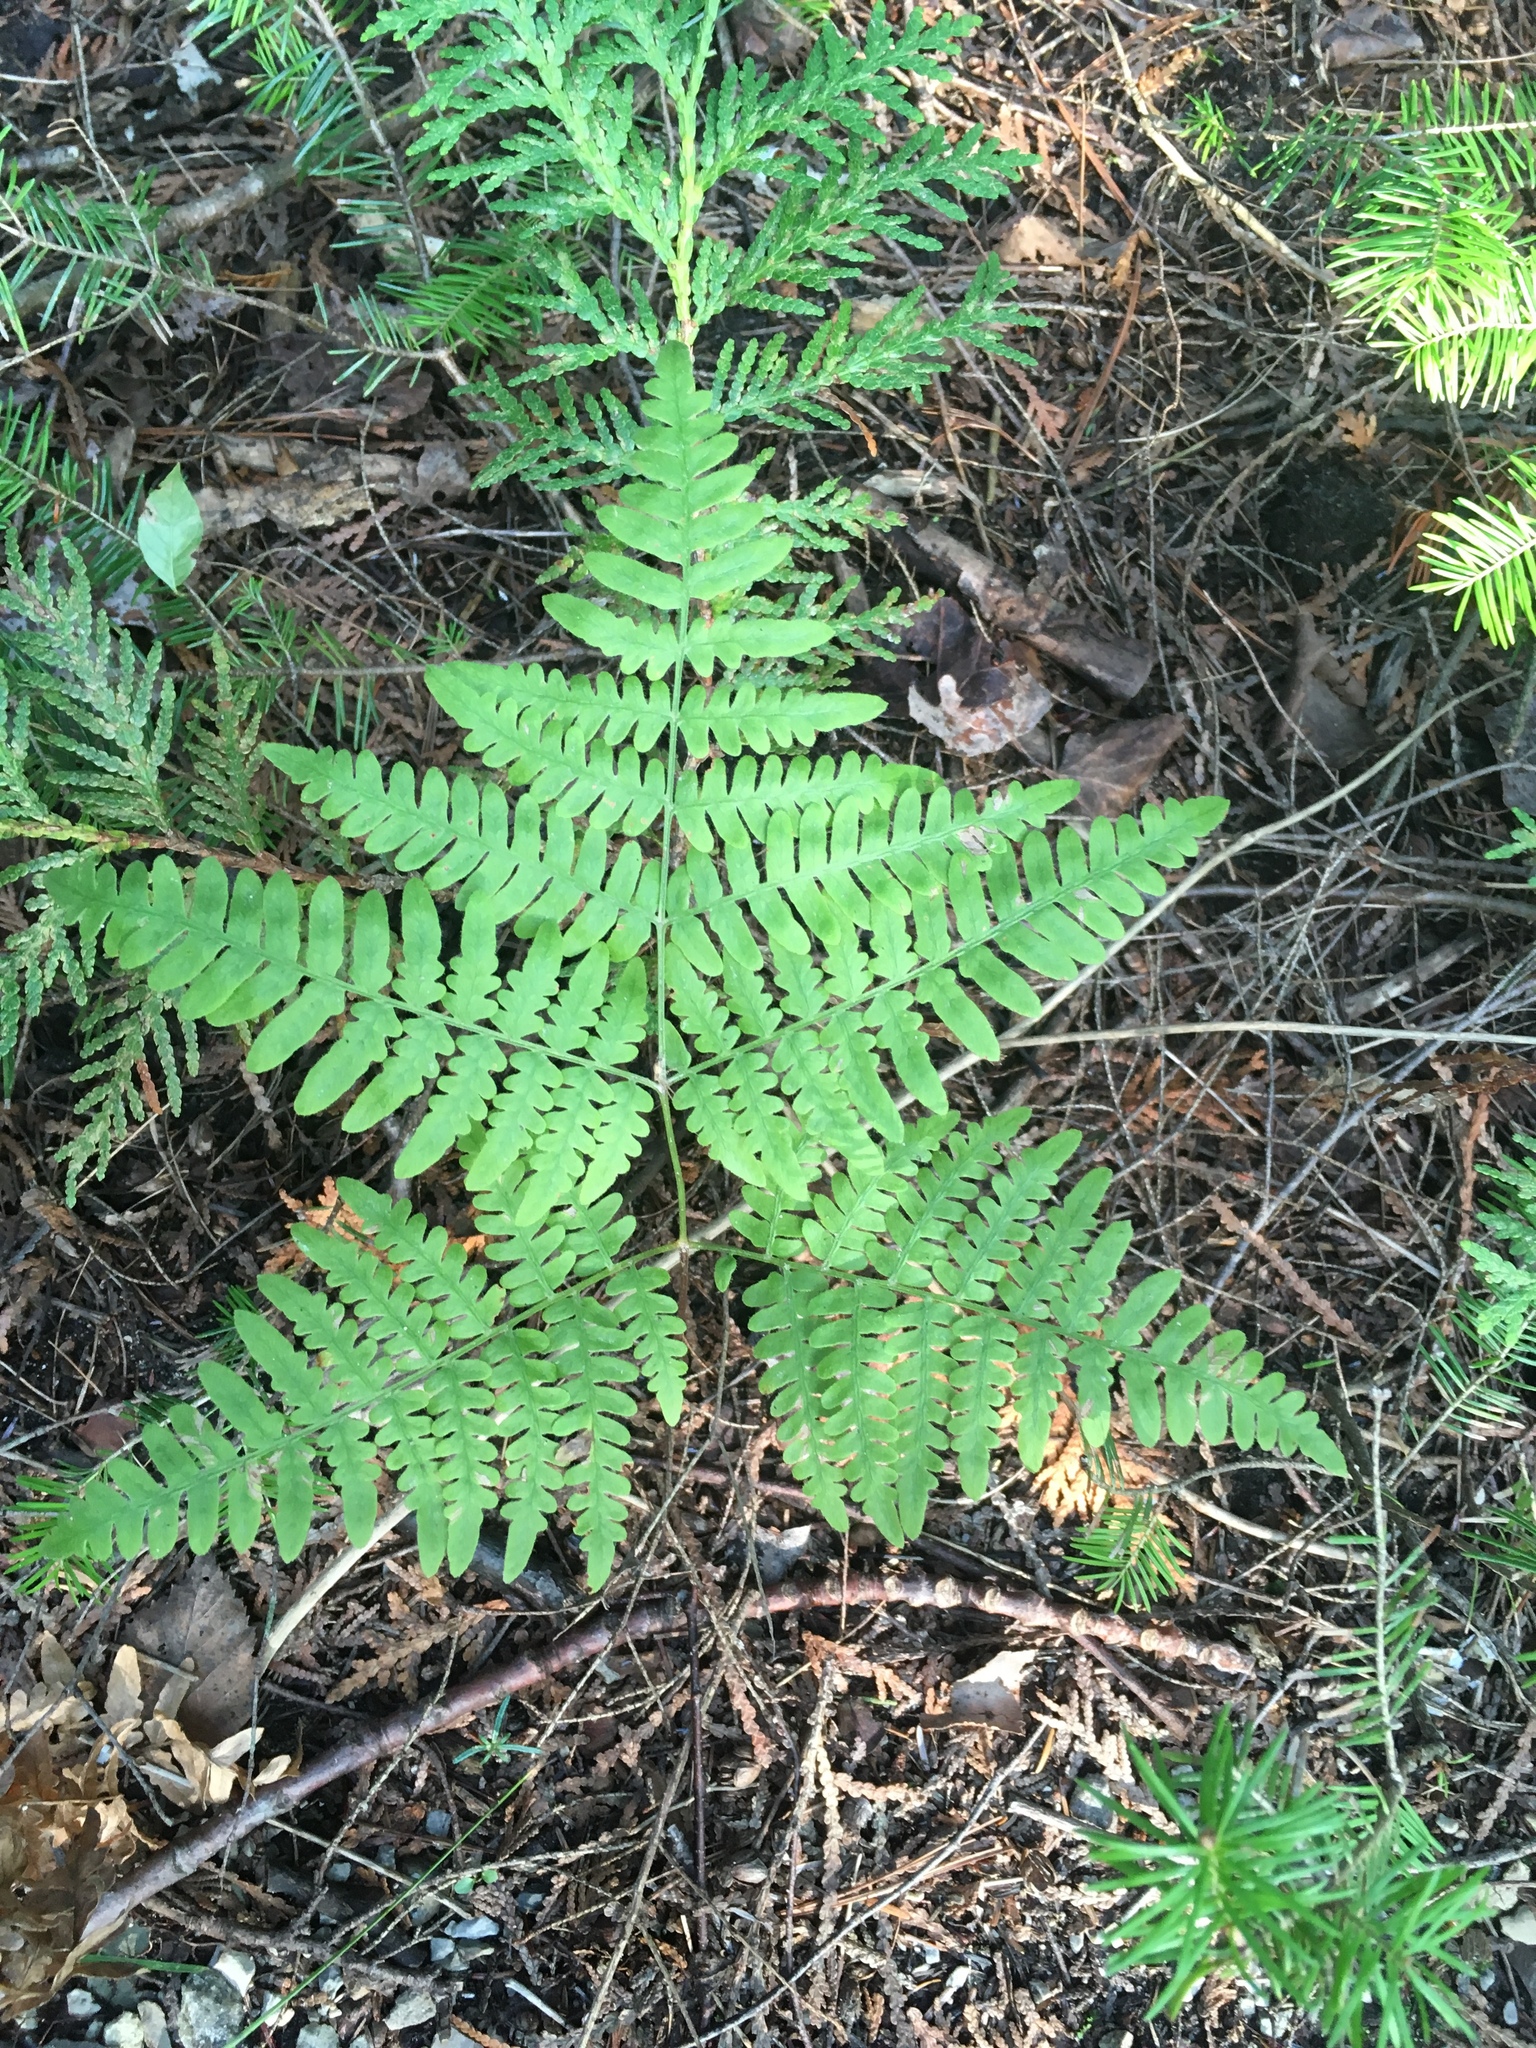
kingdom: Plantae
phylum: Tracheophyta
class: Polypodiopsida
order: Polypodiales
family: Dennstaedtiaceae
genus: Pteridium
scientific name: Pteridium aquilinum
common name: Bracken
